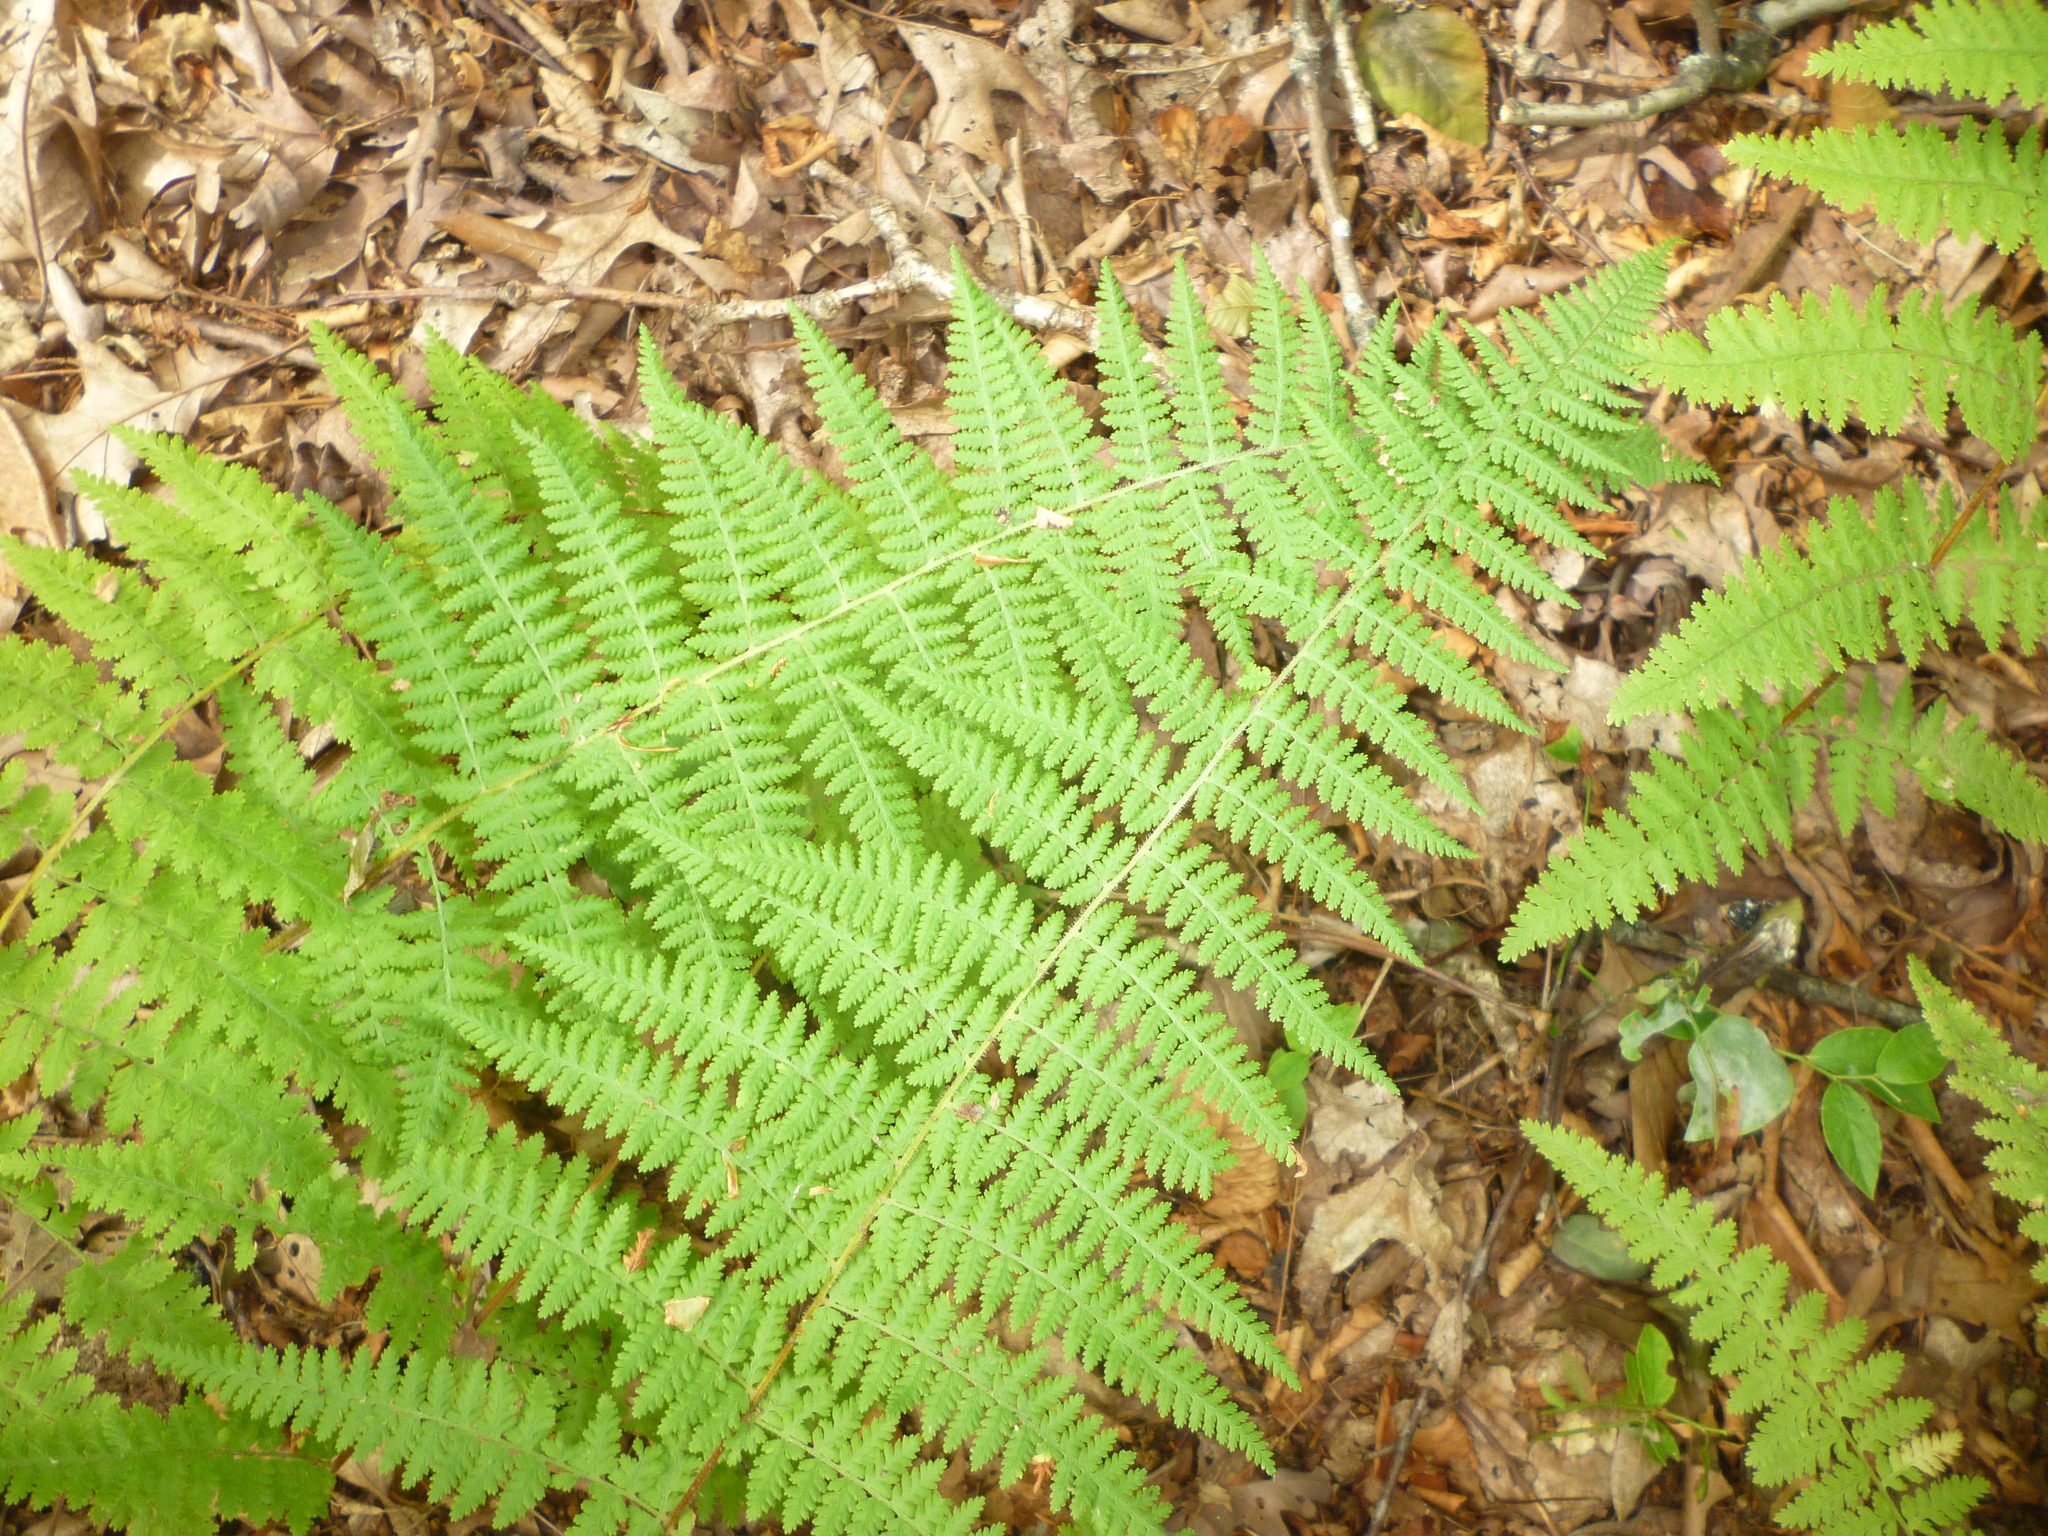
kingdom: Plantae
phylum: Tracheophyta
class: Polypodiopsida
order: Polypodiales
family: Dennstaedtiaceae
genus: Sitobolium
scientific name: Sitobolium punctilobum
